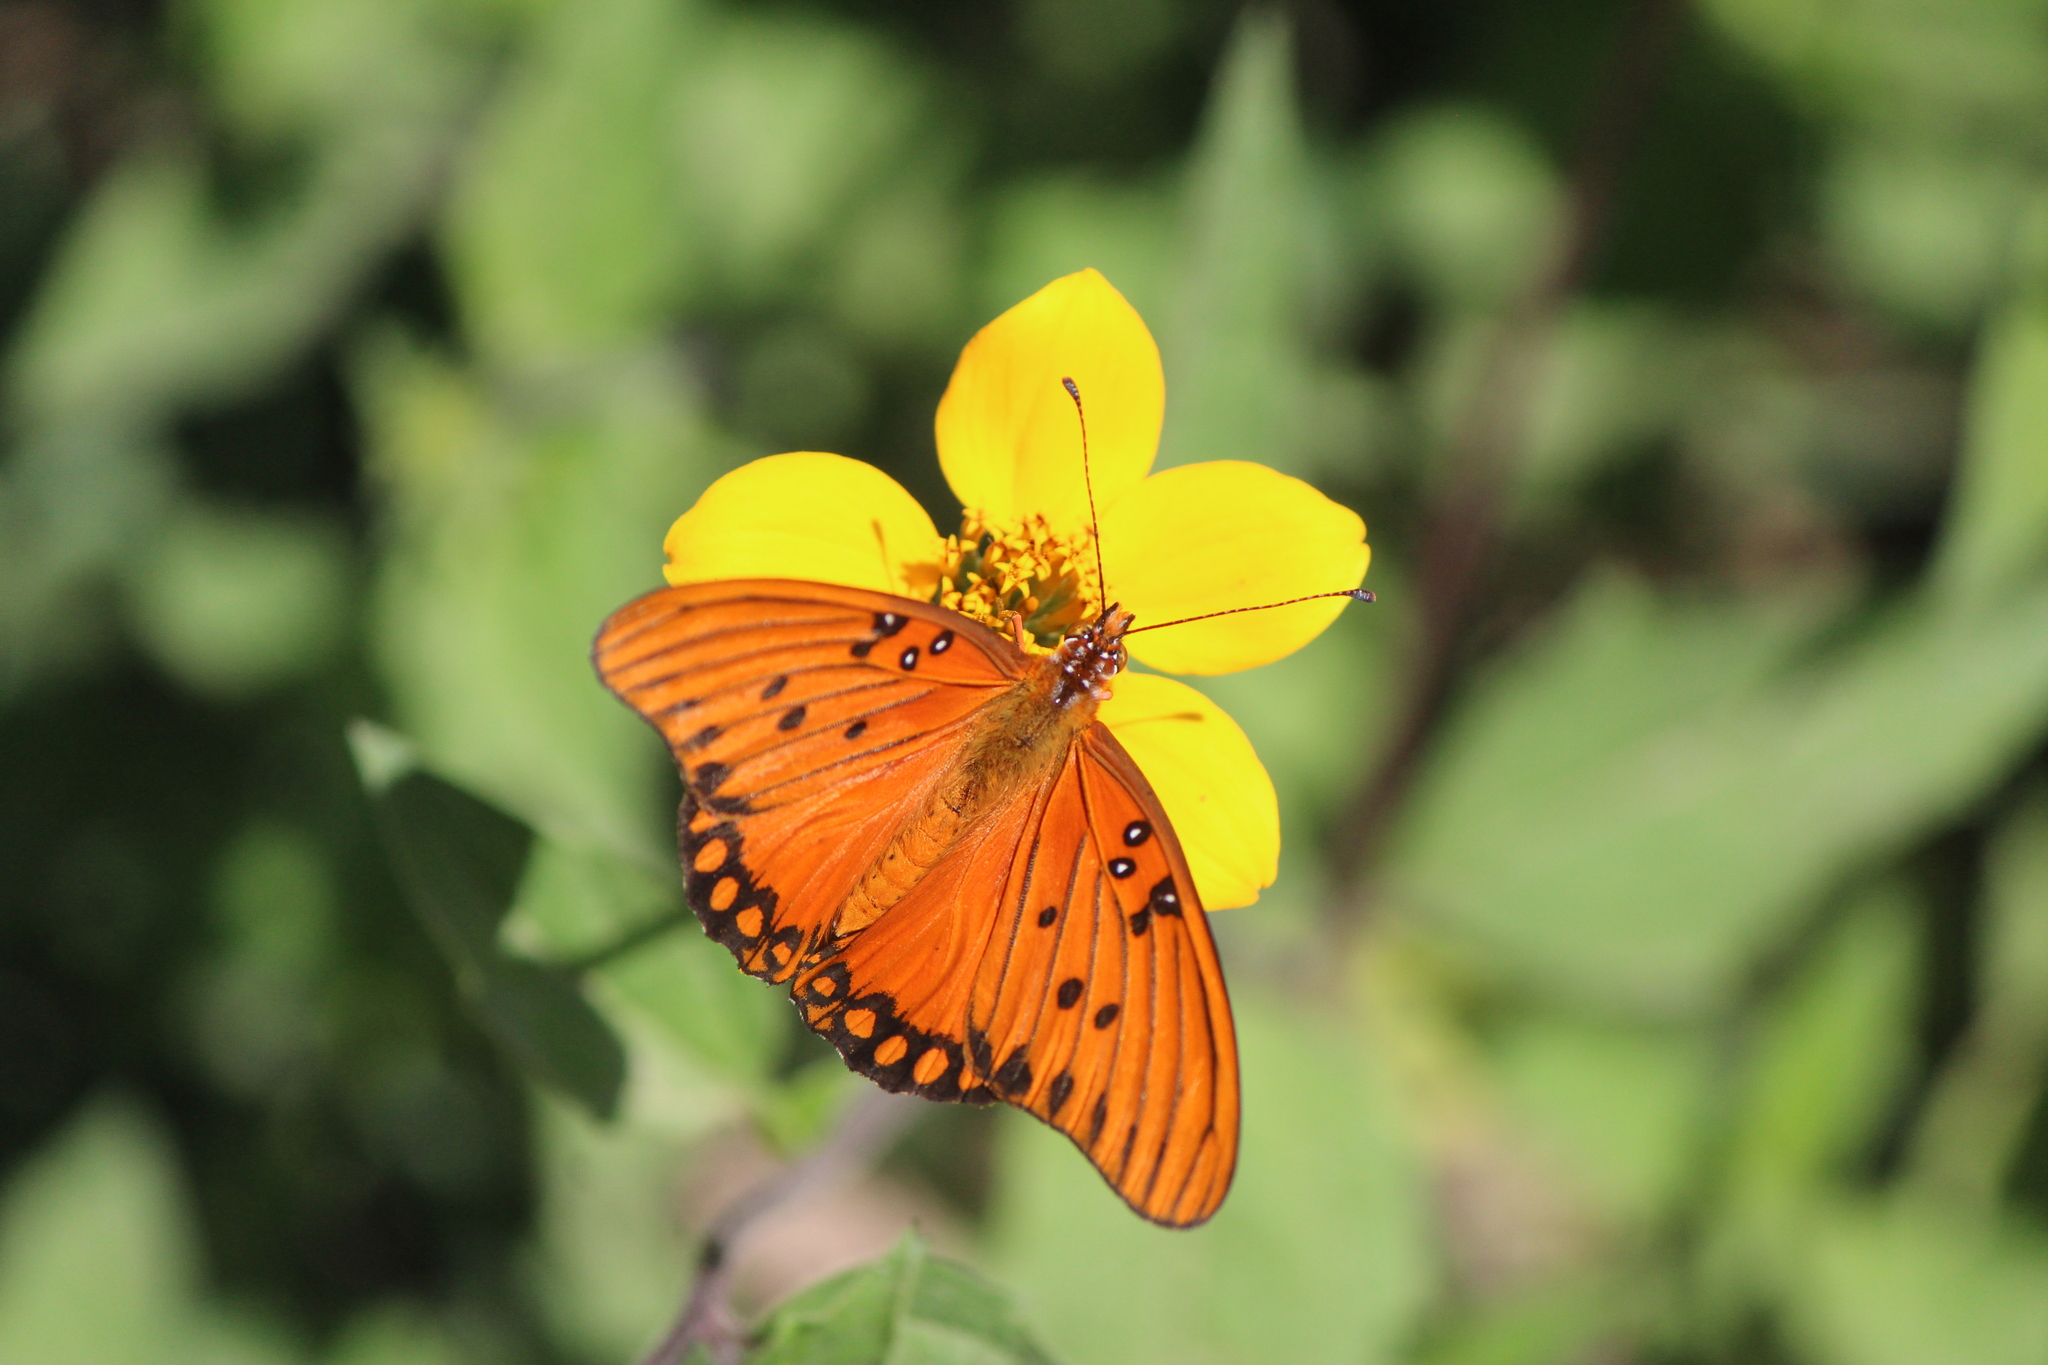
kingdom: Animalia
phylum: Arthropoda
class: Insecta
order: Lepidoptera
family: Nymphalidae
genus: Dione
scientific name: Dione vanillae
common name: Gulf fritillary
